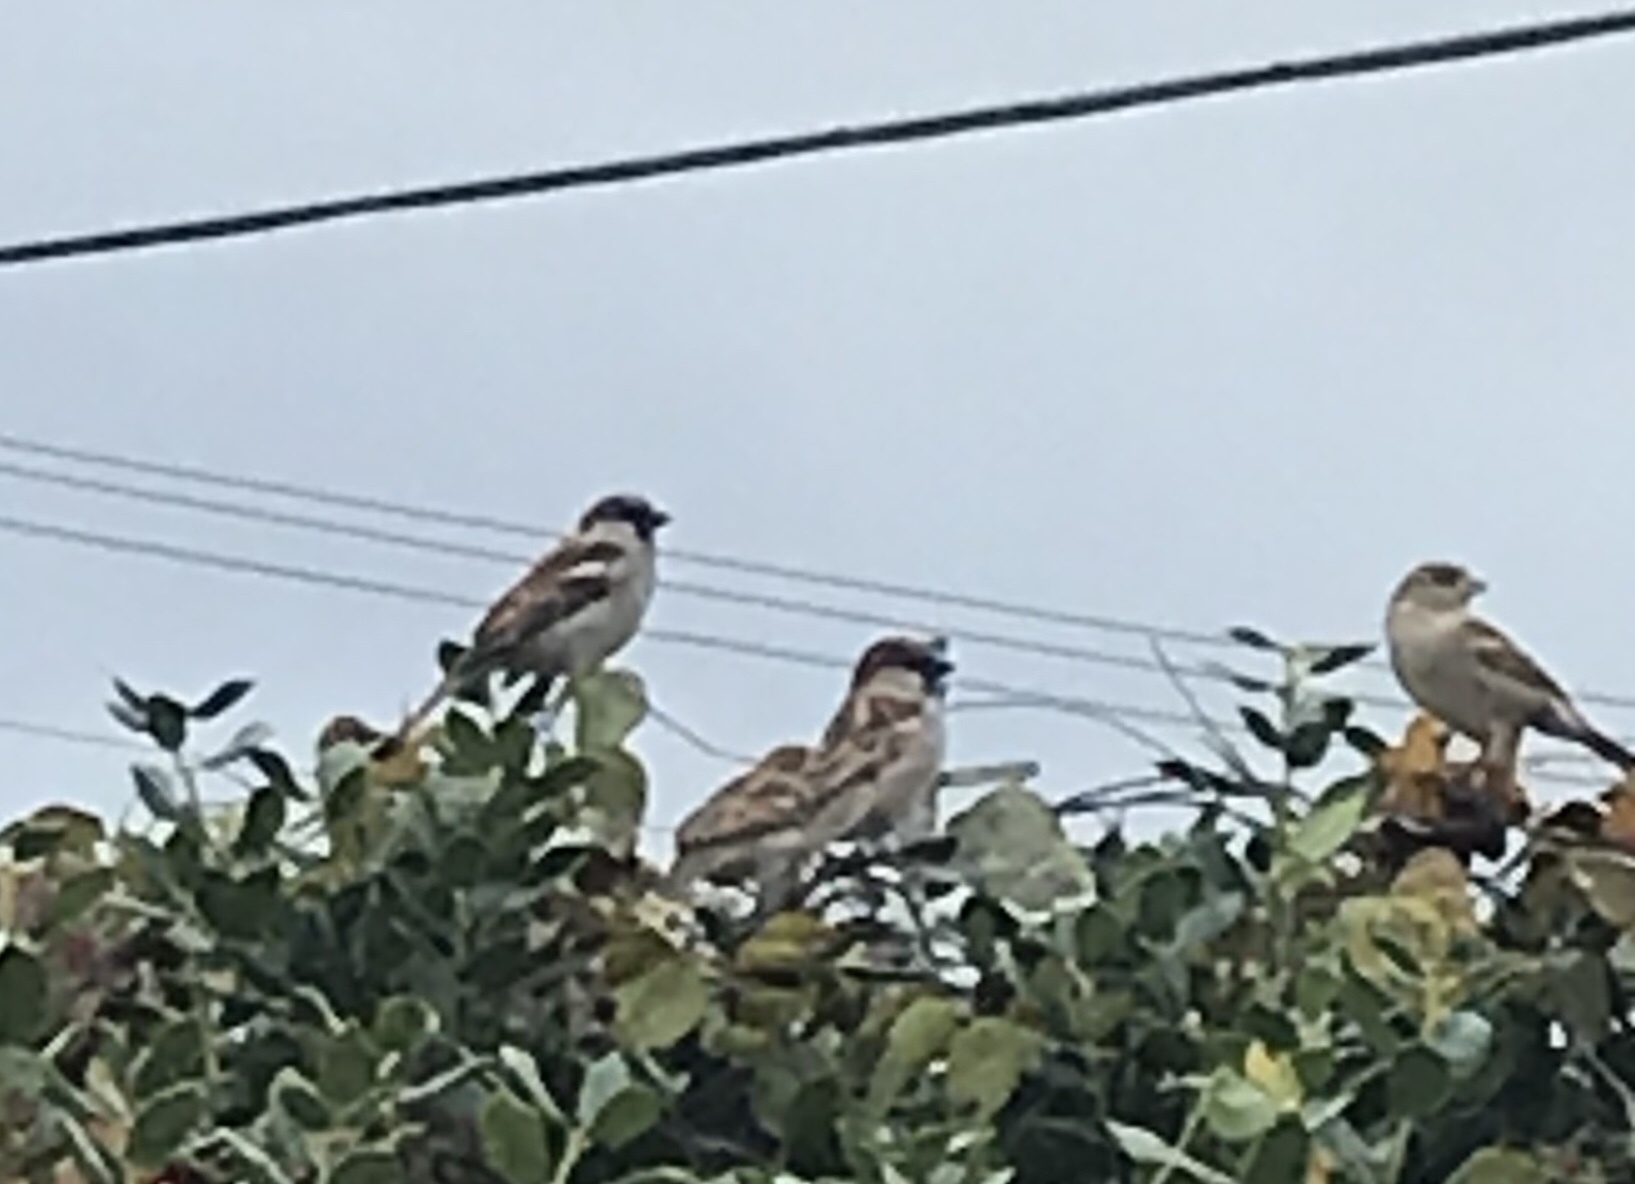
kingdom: Animalia
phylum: Chordata
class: Aves
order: Passeriformes
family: Passeridae
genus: Passer
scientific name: Passer domesticus
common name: House sparrow
